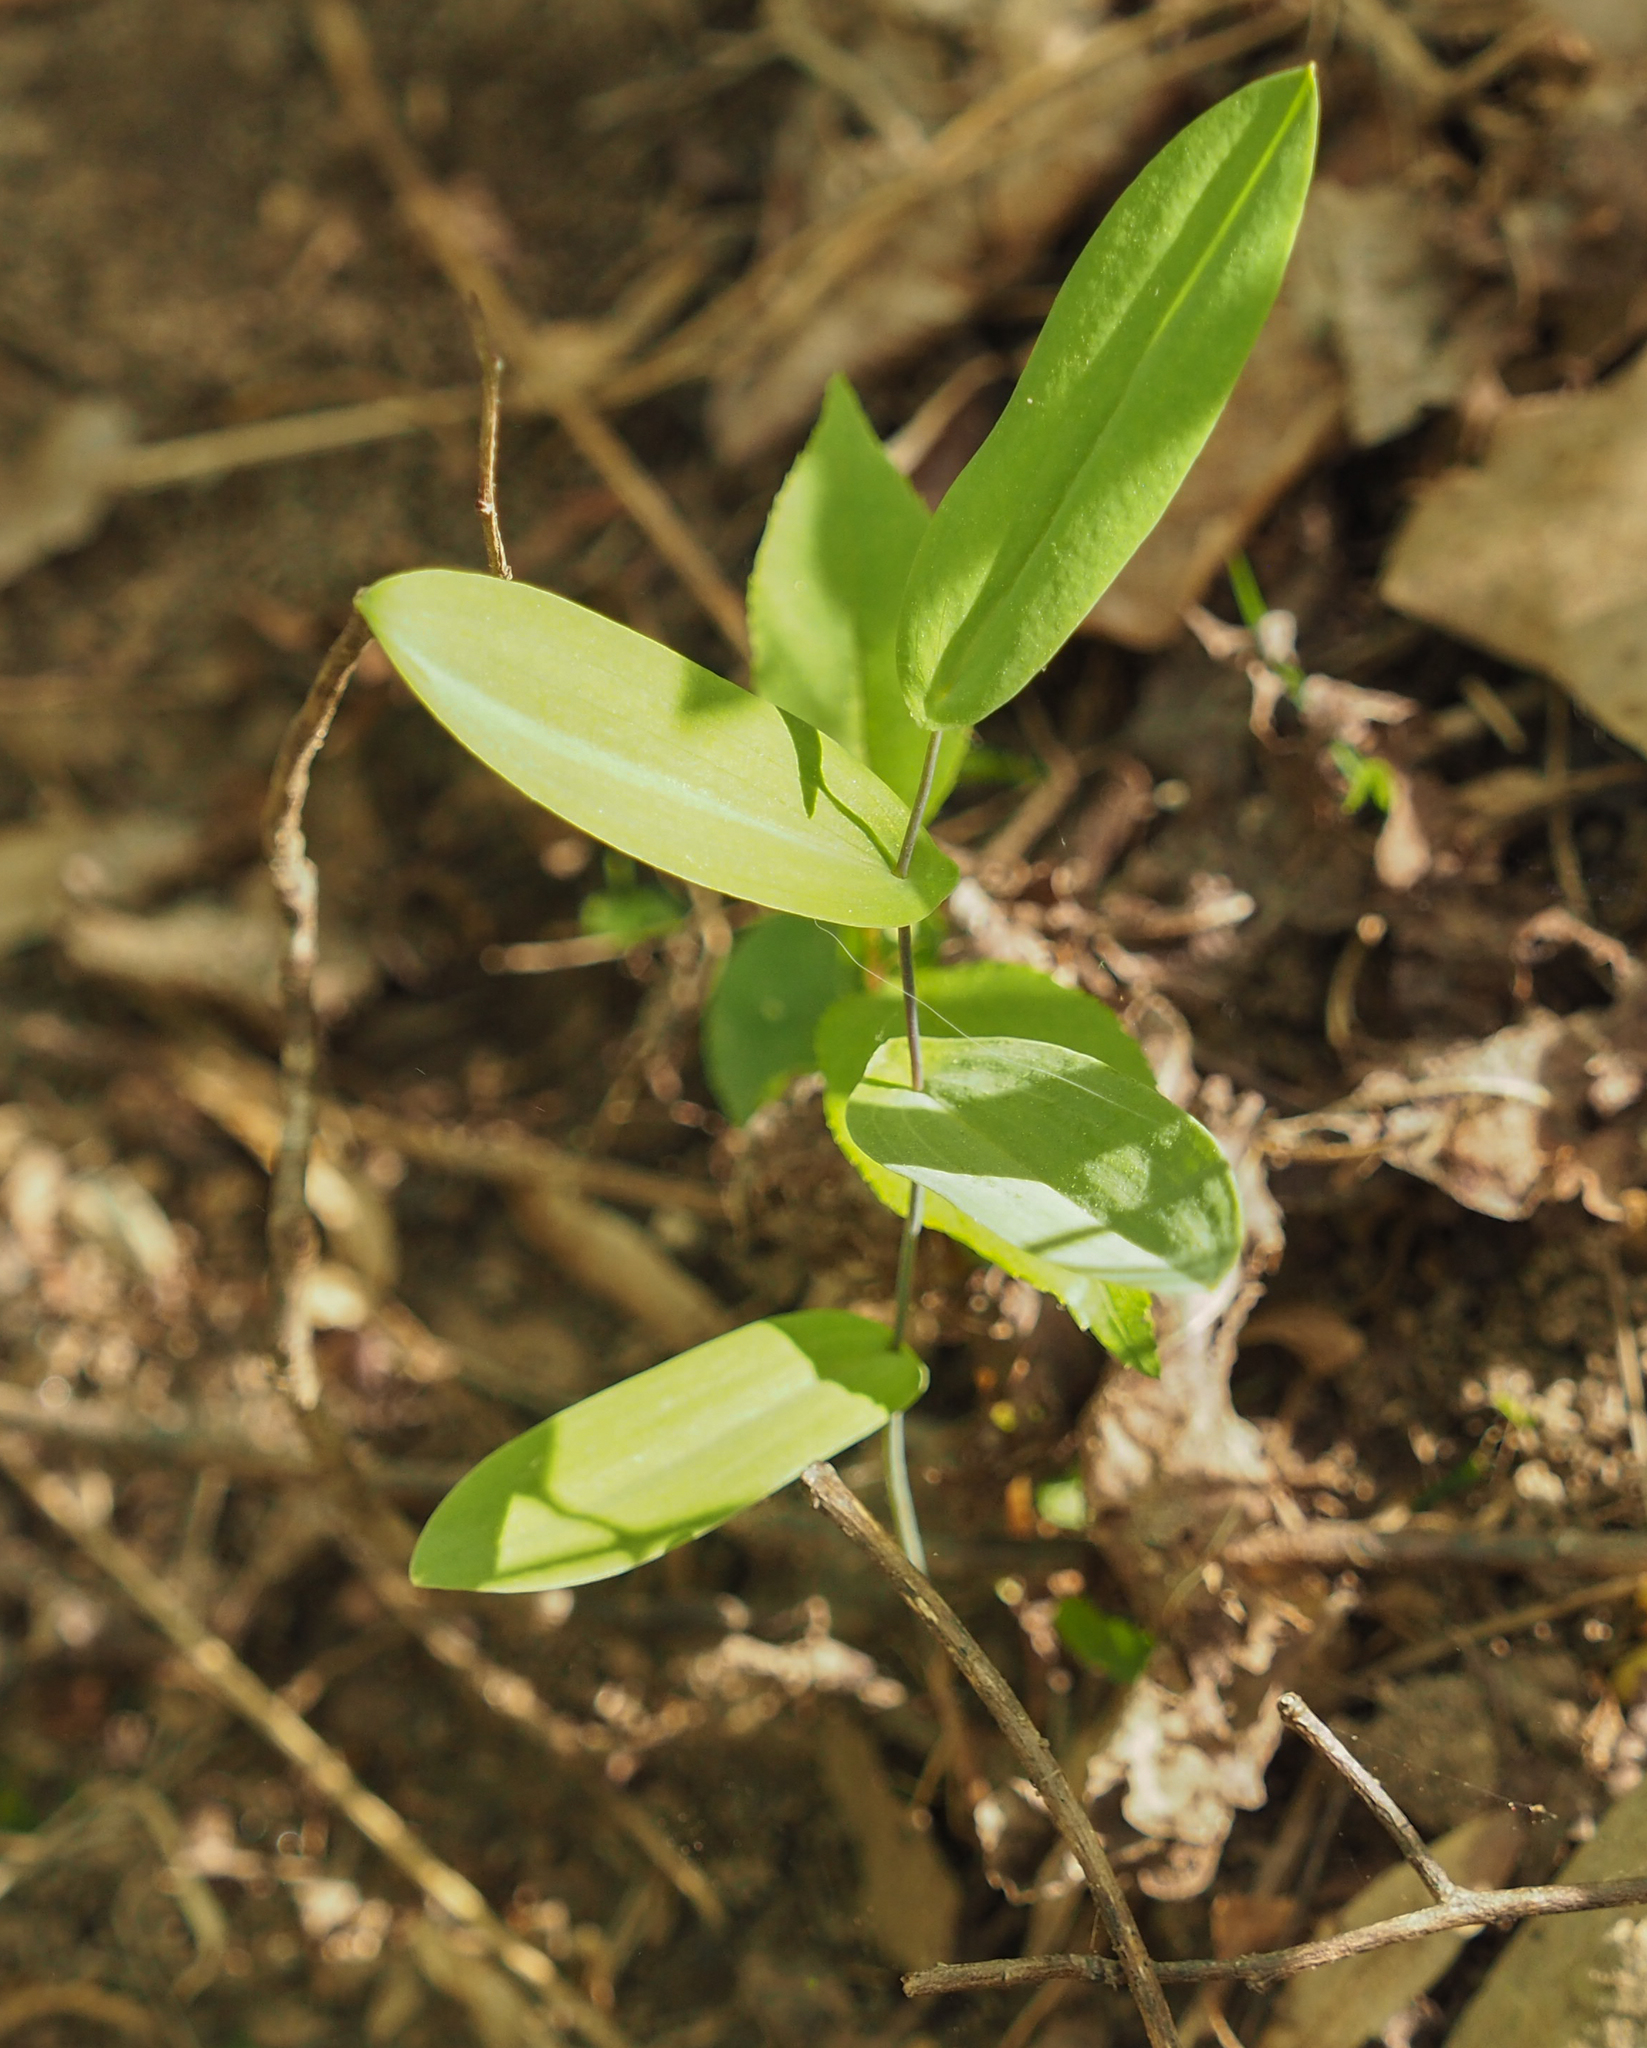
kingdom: Plantae
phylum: Tracheophyta
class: Liliopsida
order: Liliales
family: Colchicaceae
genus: Uvularia
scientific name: Uvularia perfoliata
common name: Perfoliate bellwort
